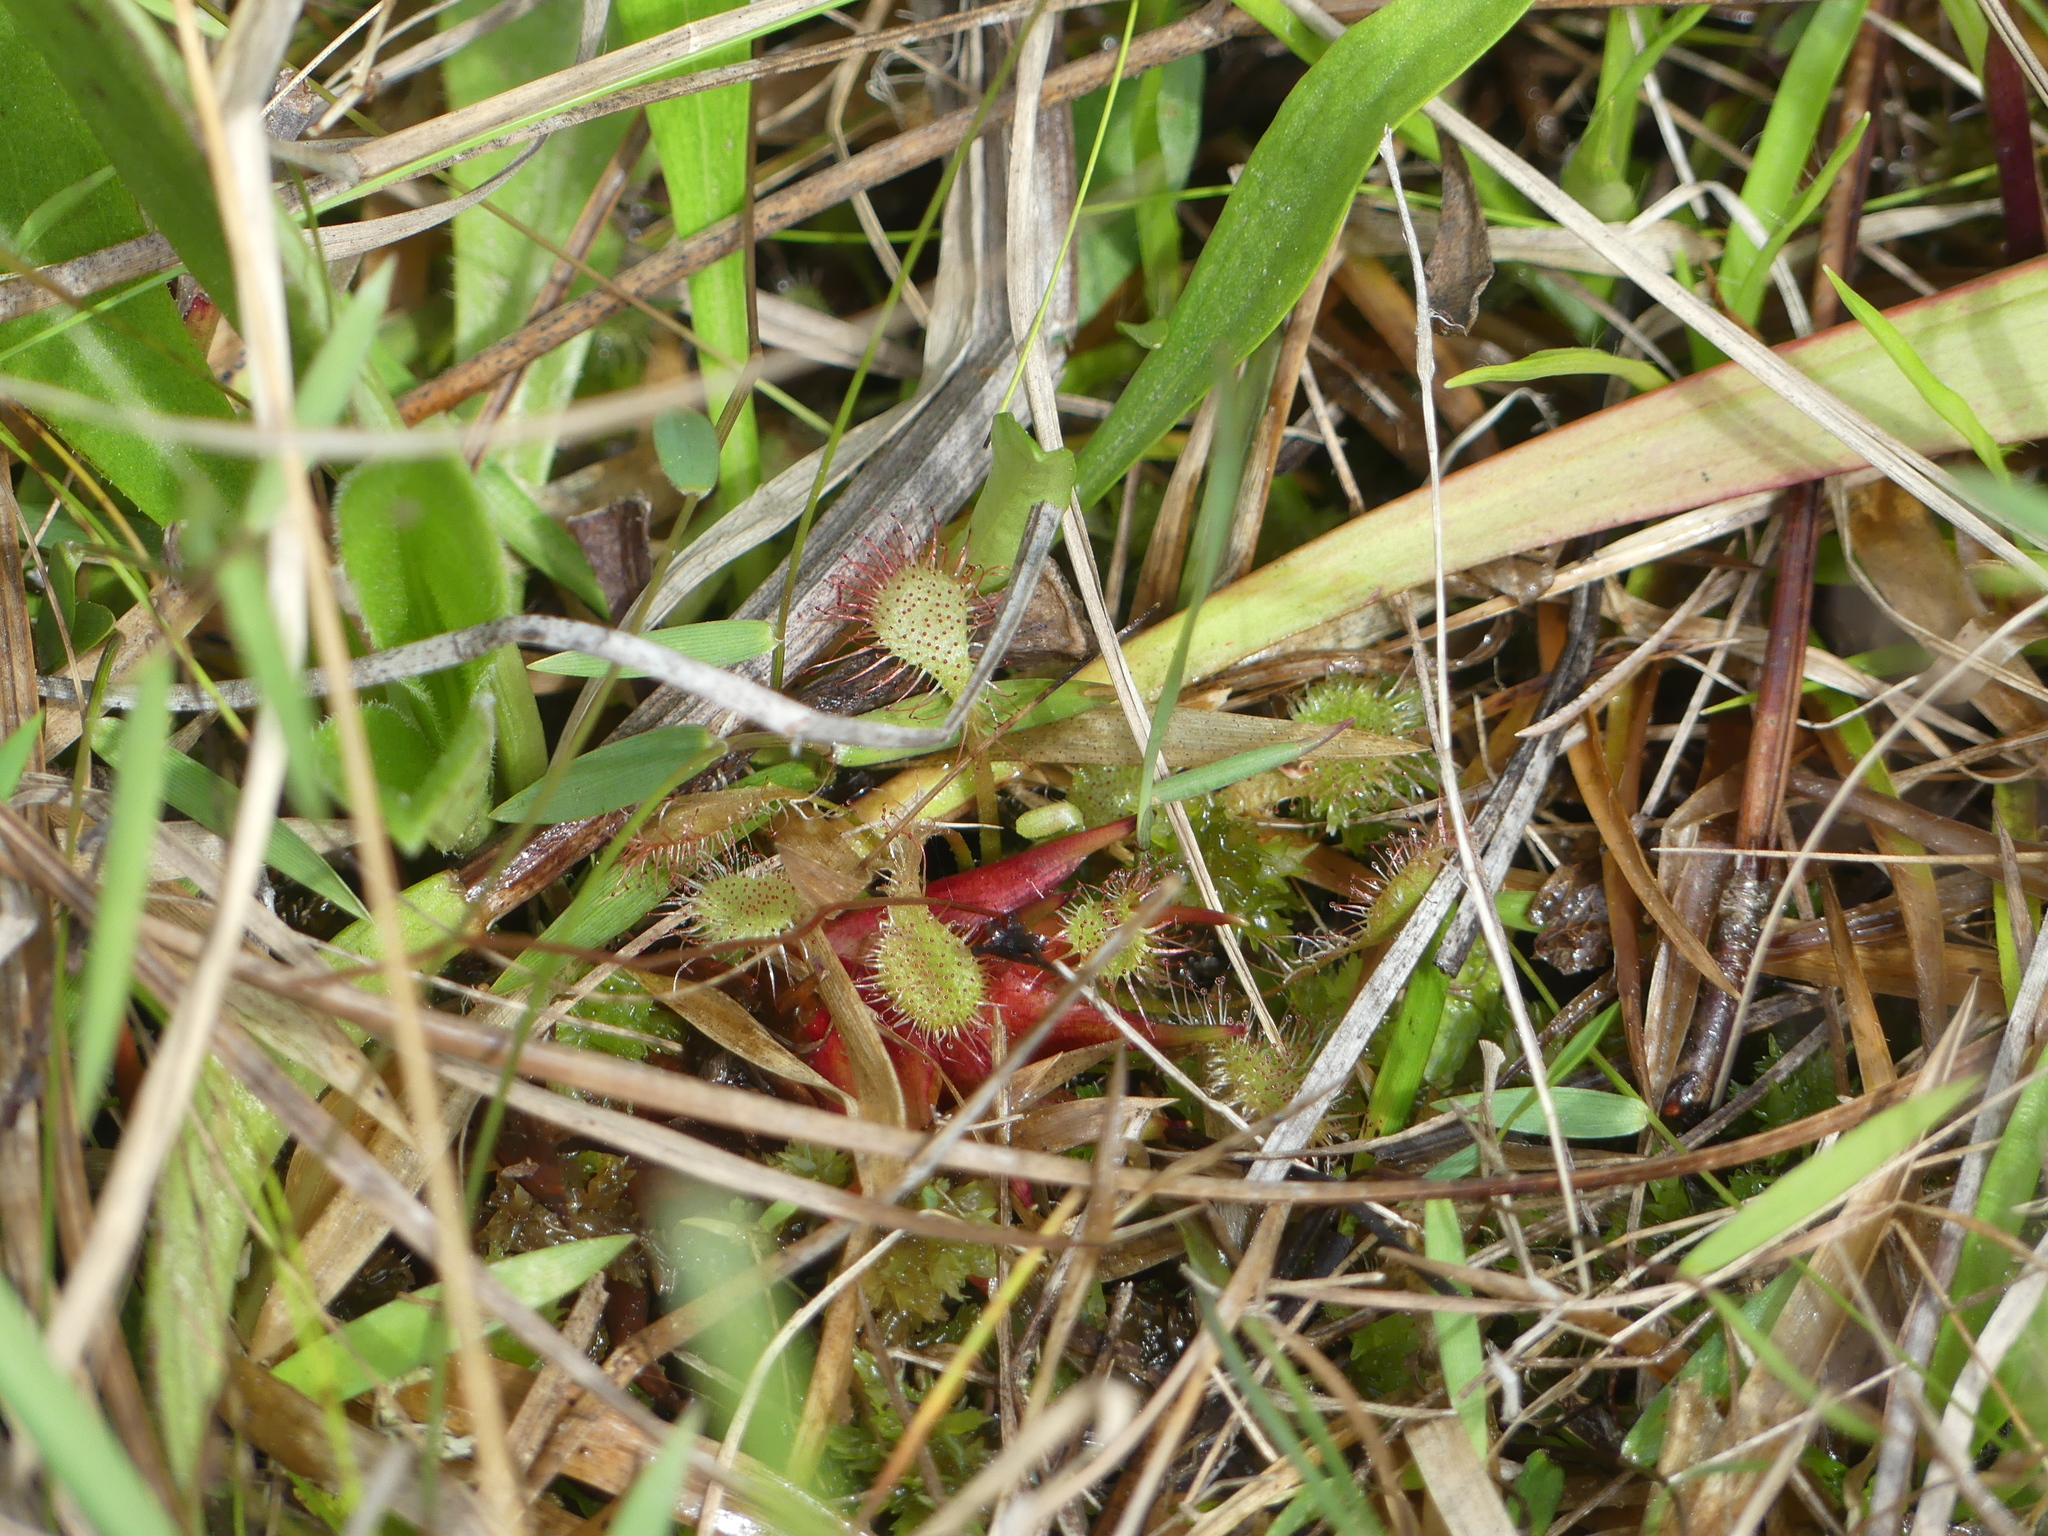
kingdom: Plantae
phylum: Tracheophyta
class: Magnoliopsida
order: Caryophyllales
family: Droseraceae
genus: Drosera
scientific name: Drosera capillaris
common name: Pink sundew
